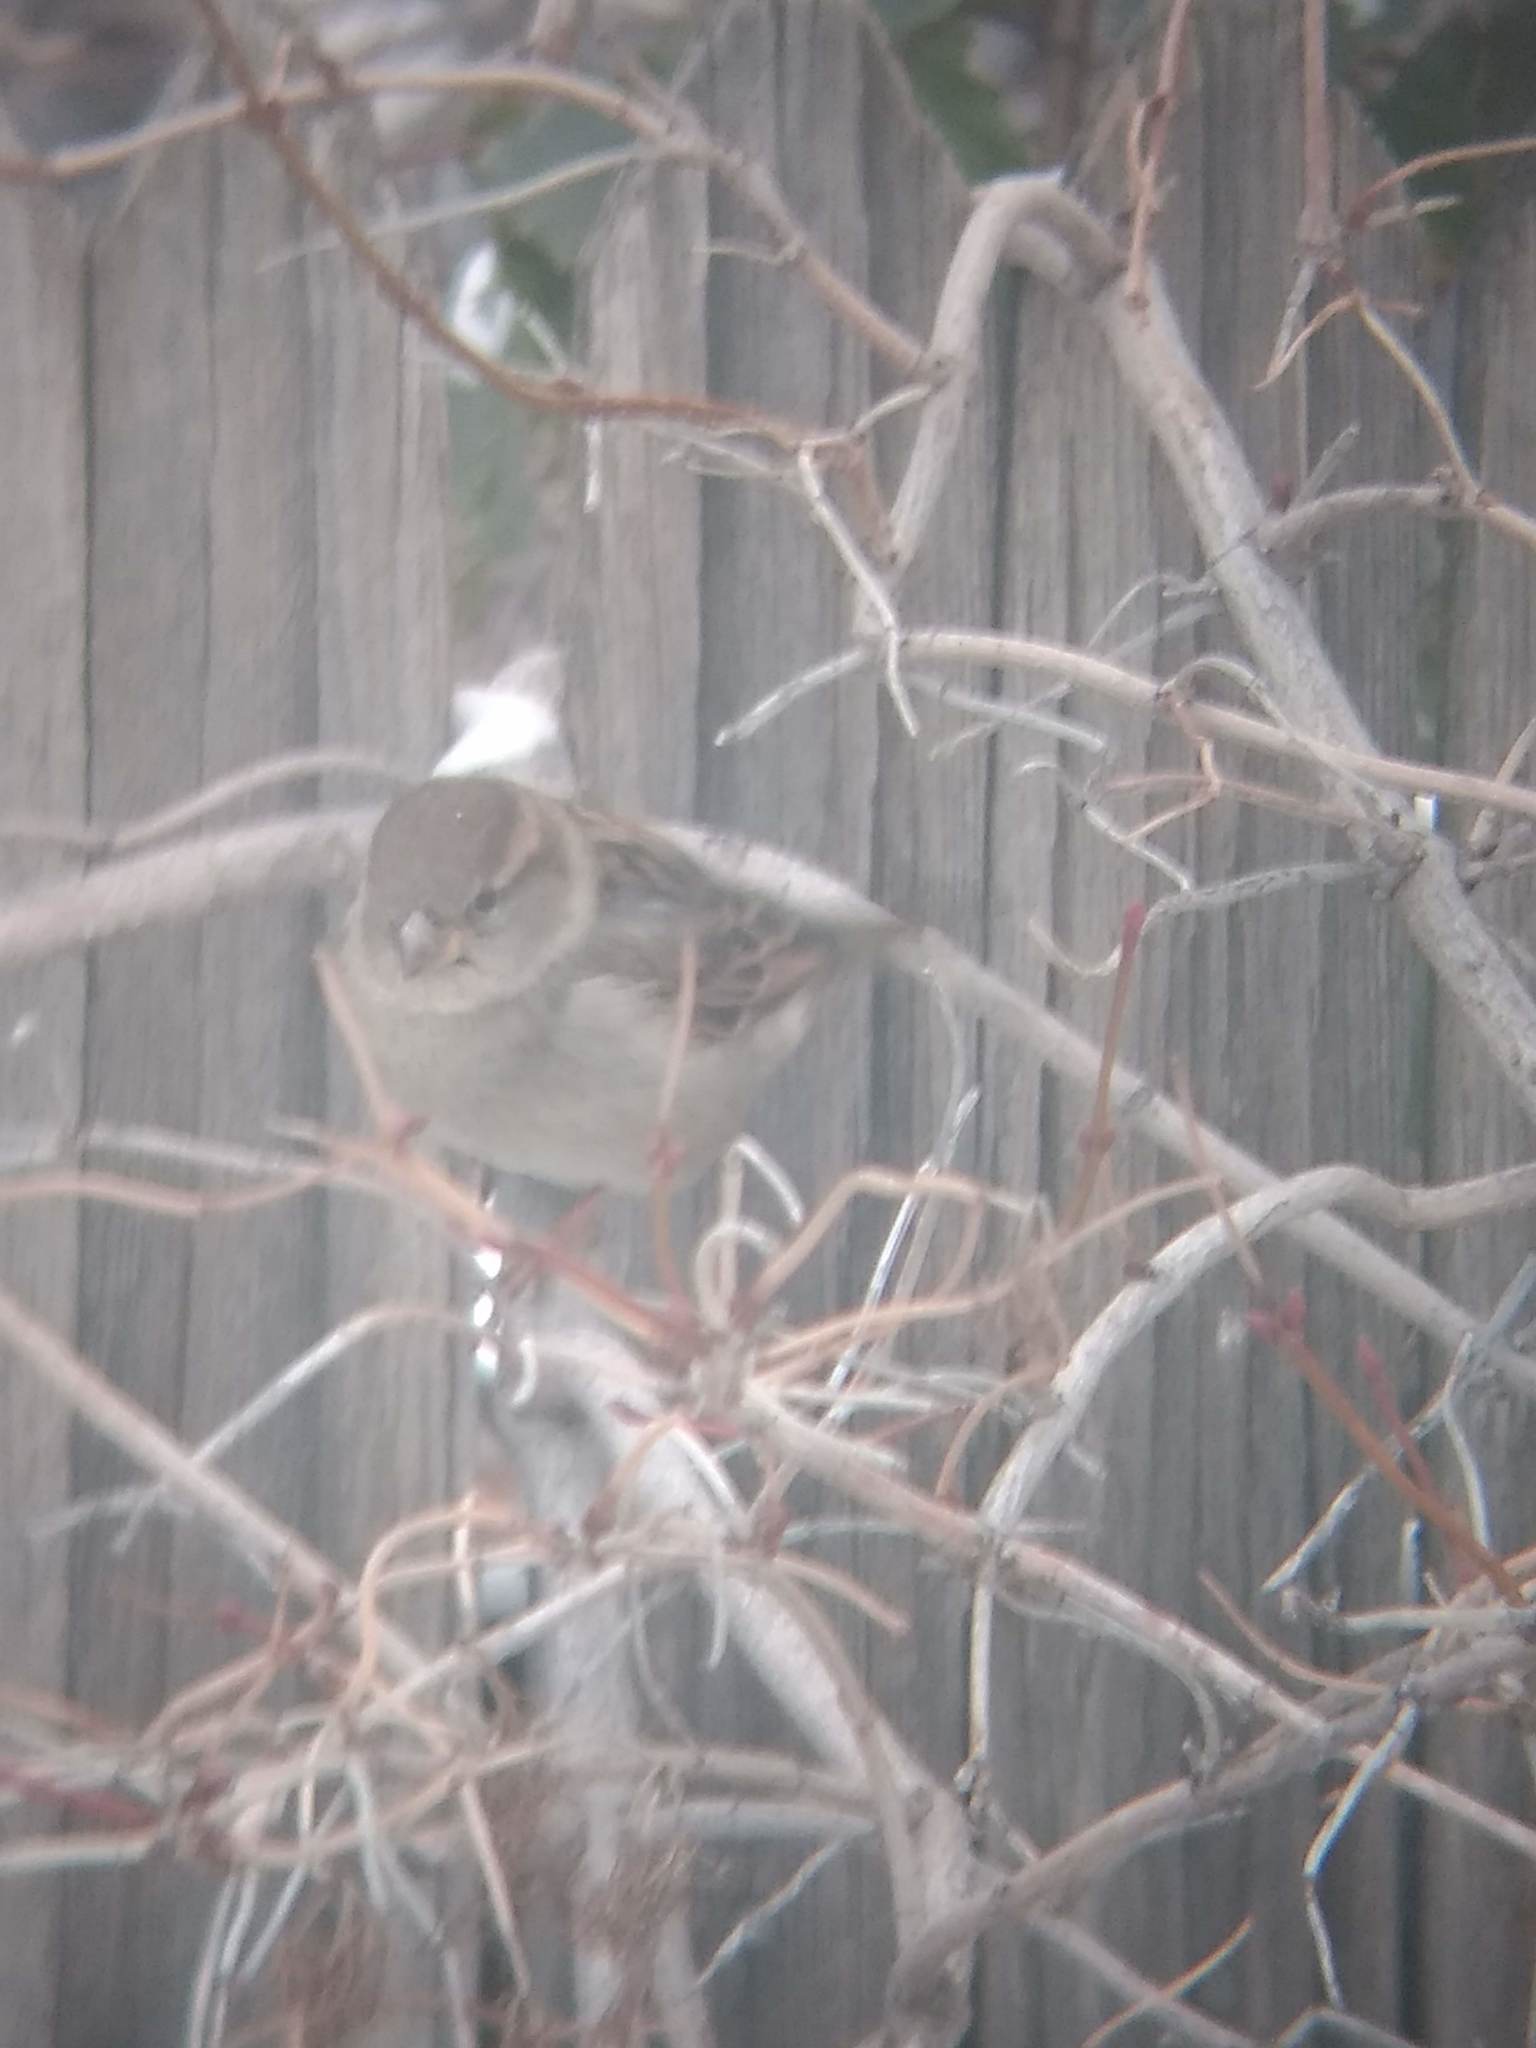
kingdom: Animalia
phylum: Chordata
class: Aves
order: Passeriformes
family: Passeridae
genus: Passer
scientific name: Passer domesticus
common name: House sparrow
